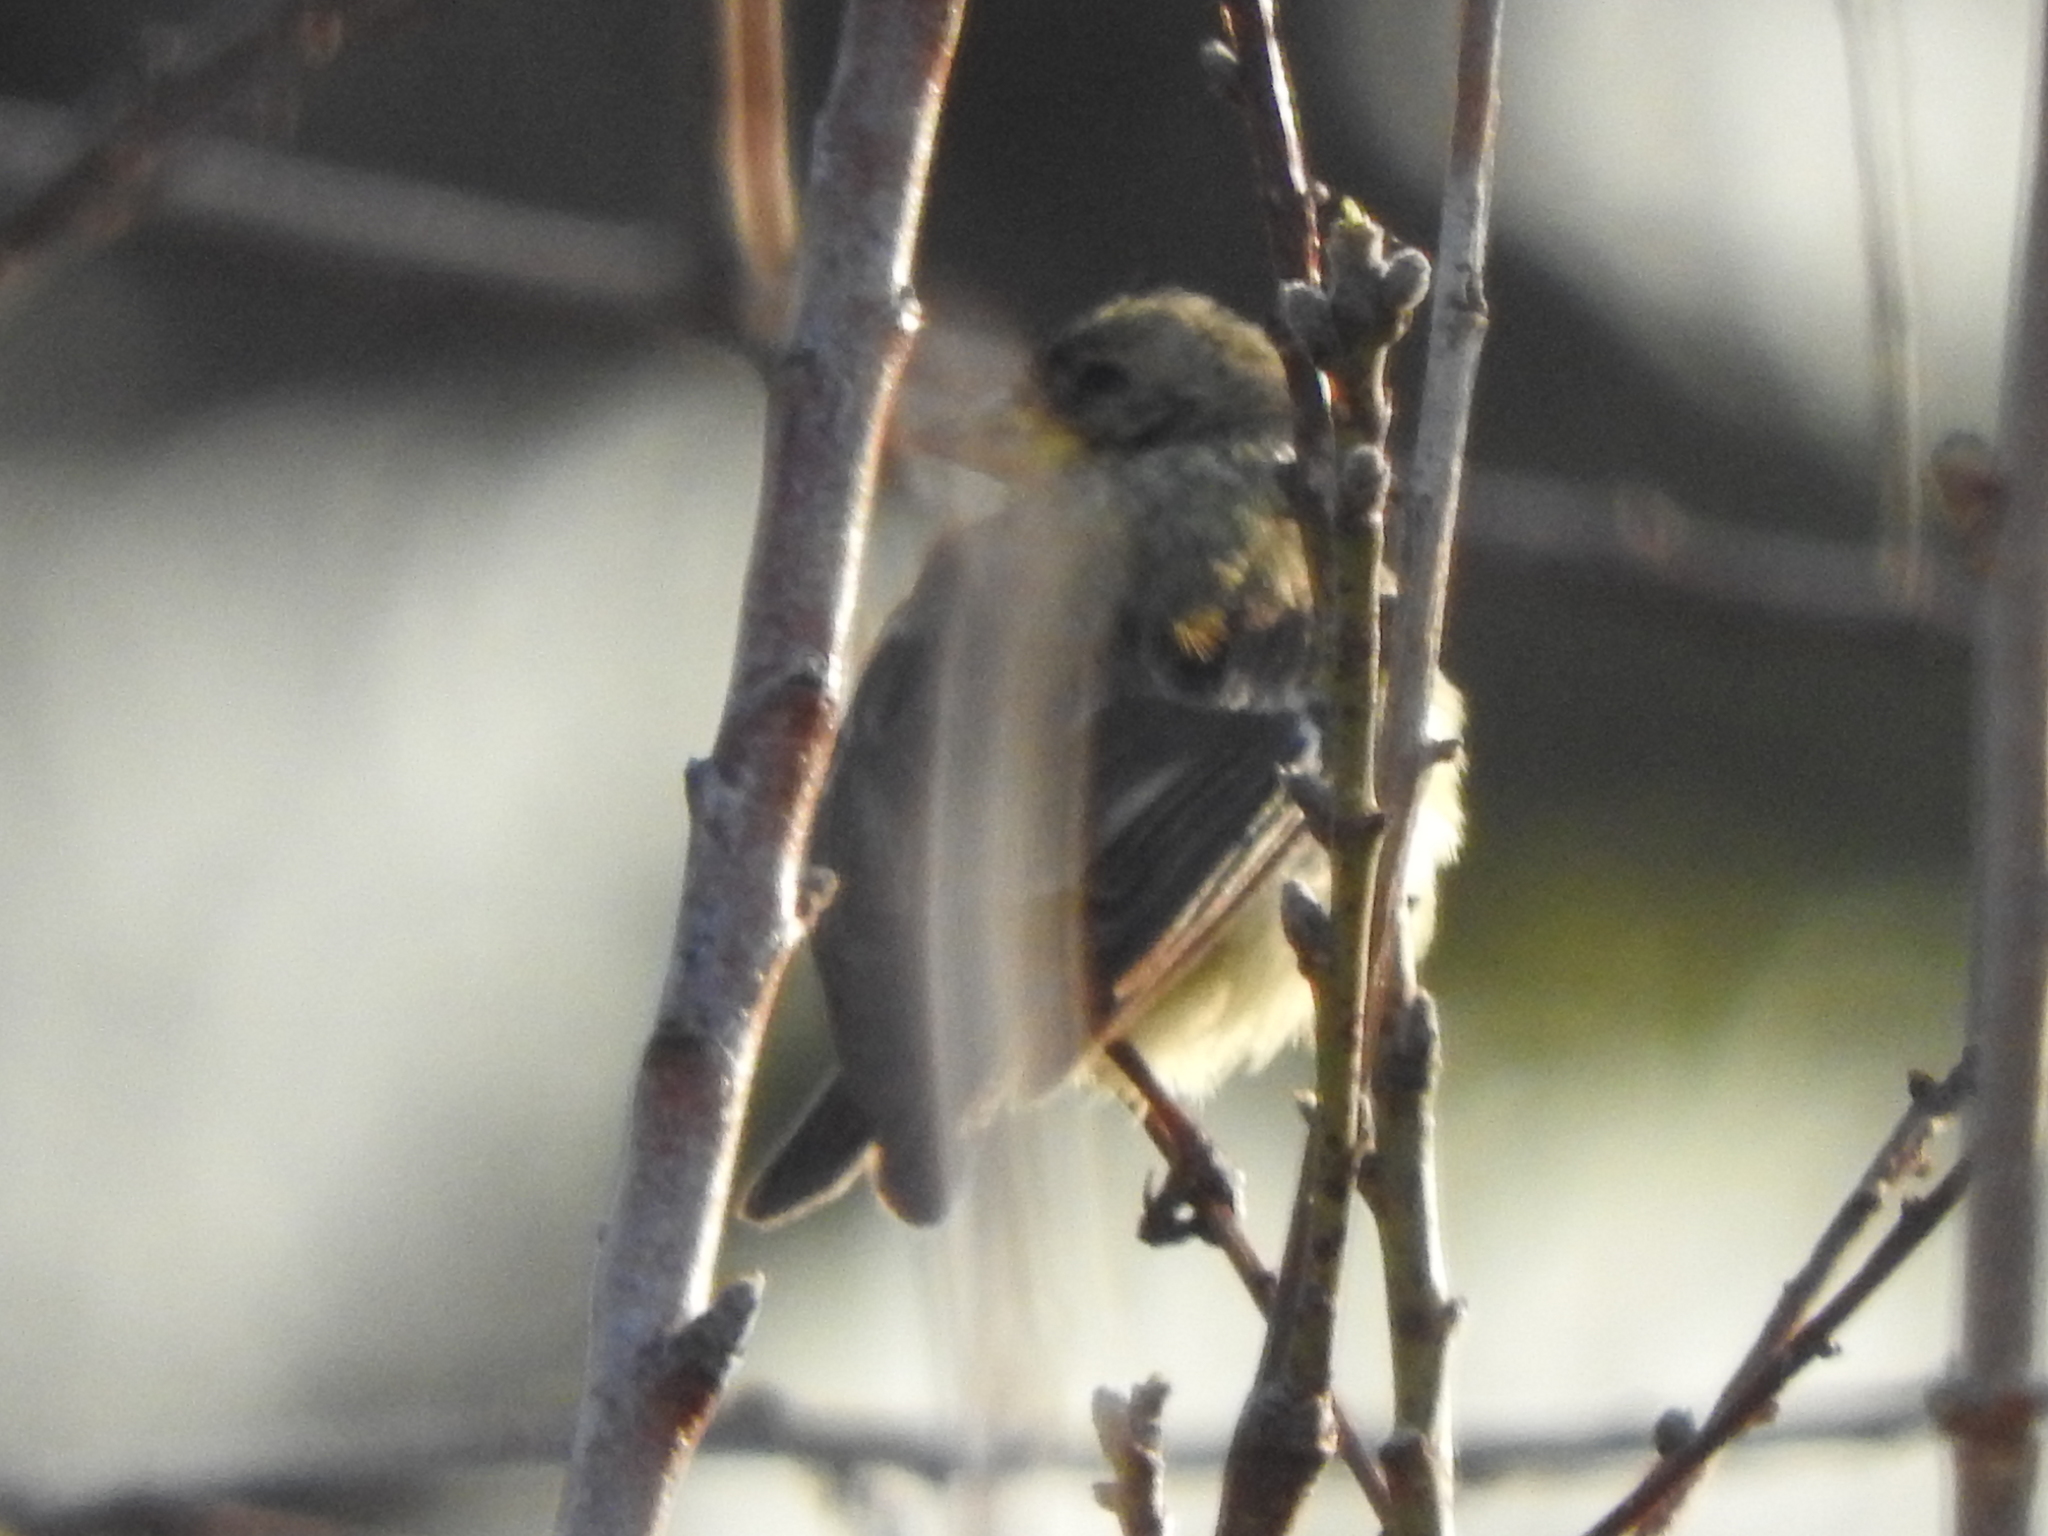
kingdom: Animalia
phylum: Chordata
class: Aves
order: Passeriformes
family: Fringillidae
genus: Spinus
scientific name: Spinus psaltria
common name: Lesser goldfinch
